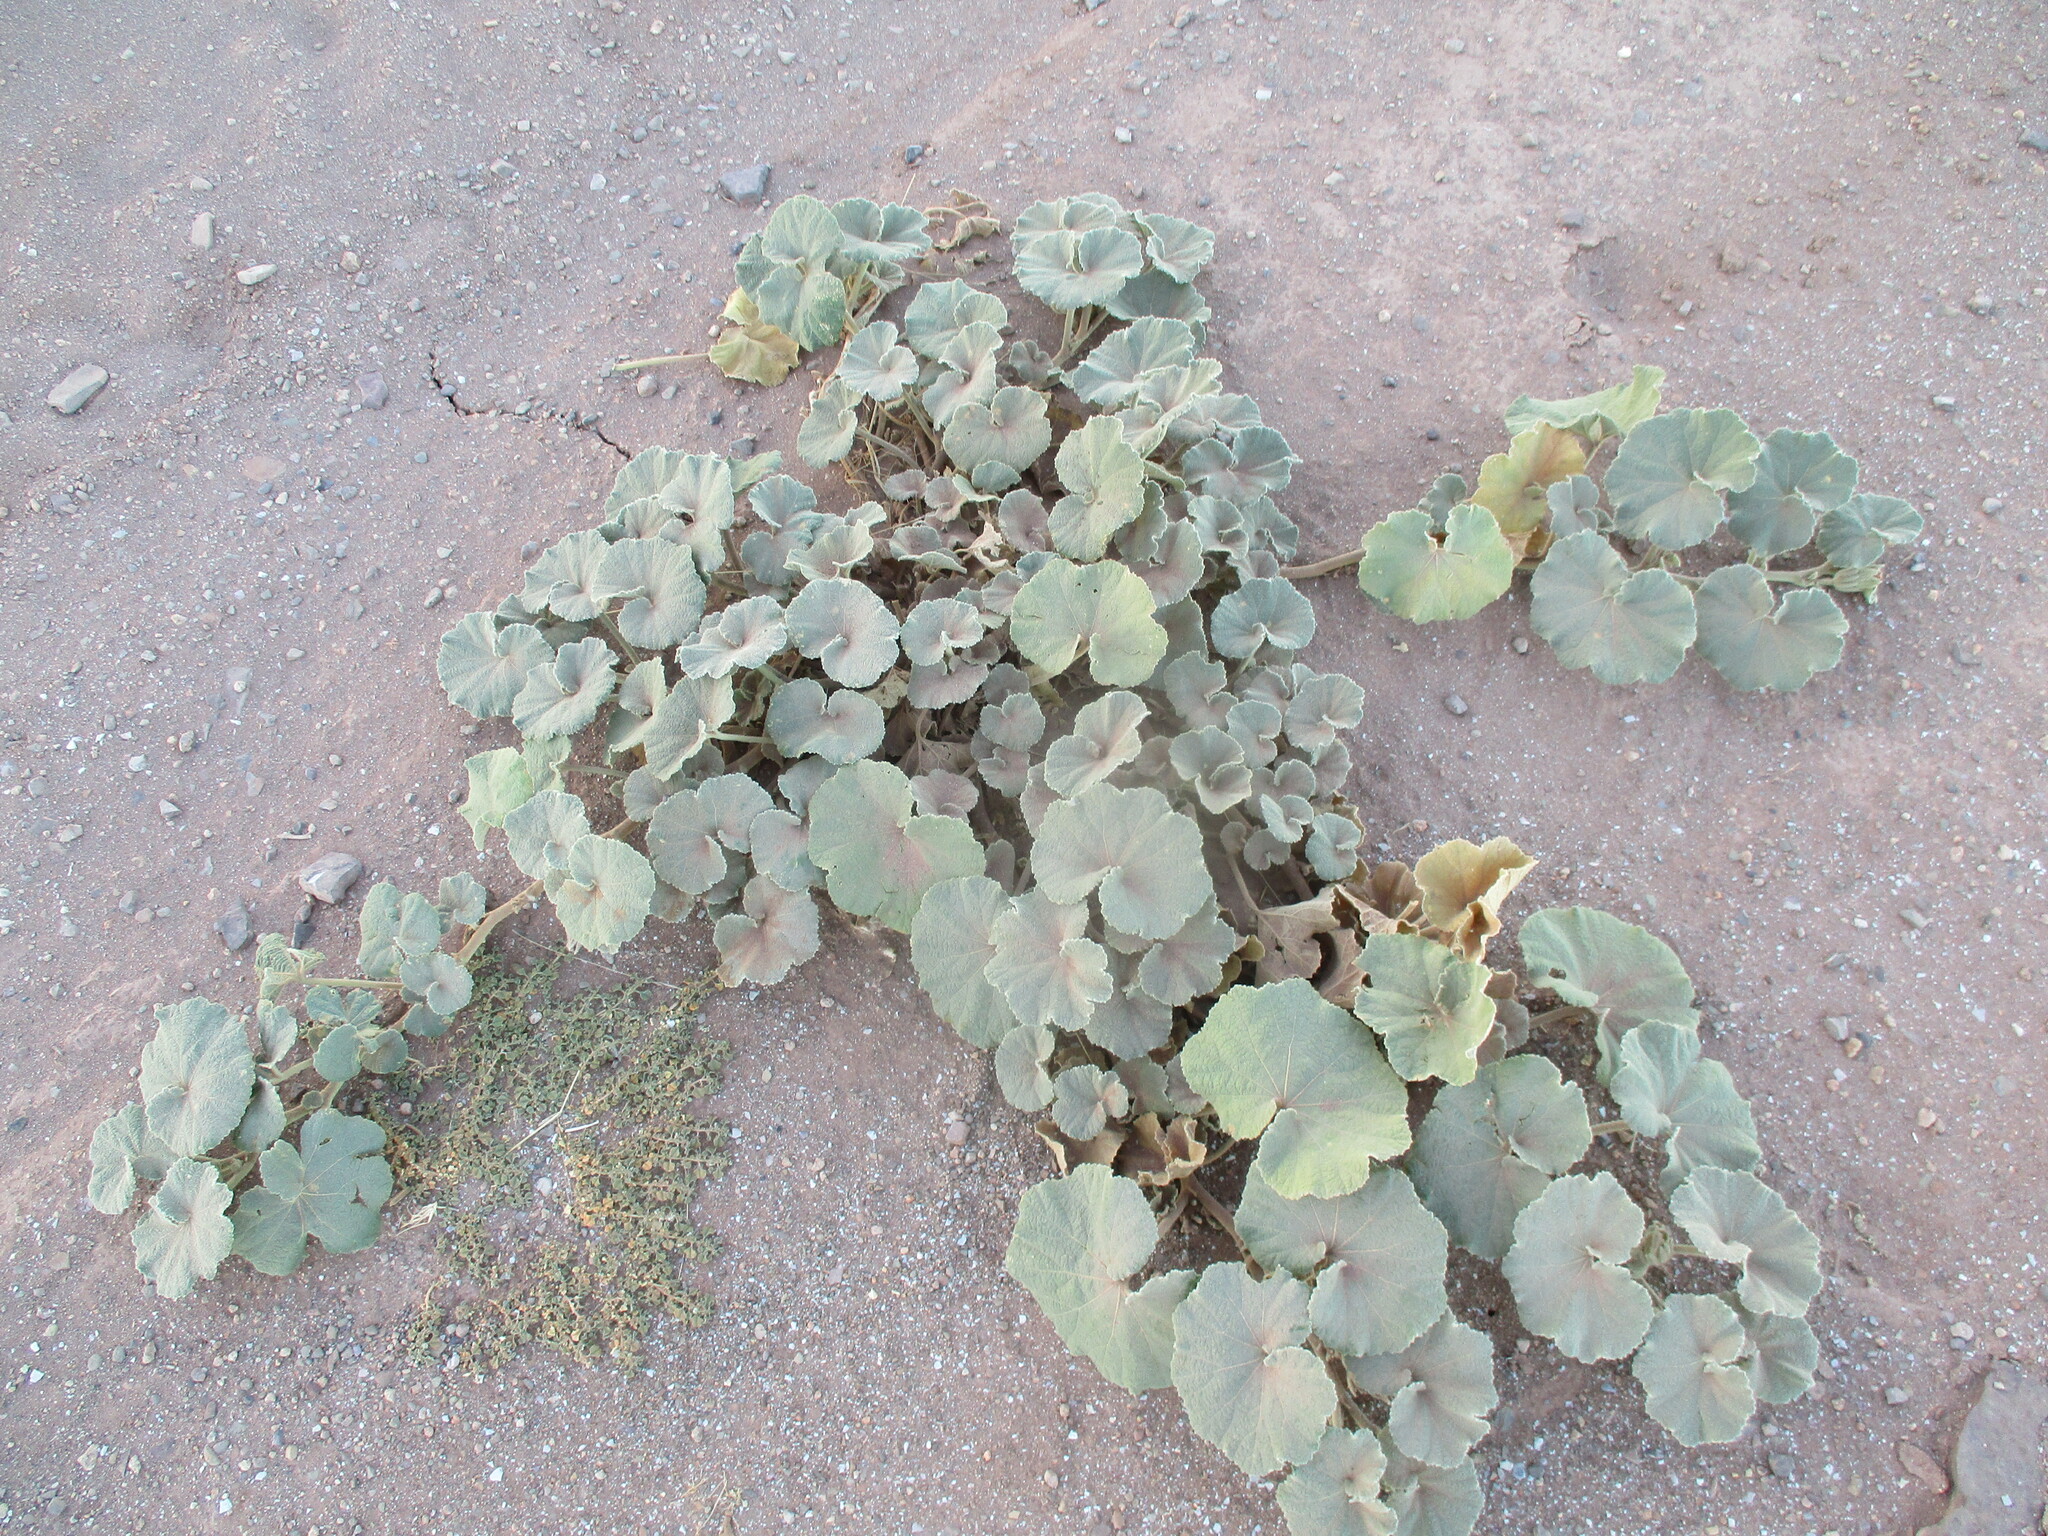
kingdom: Plantae
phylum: Tracheophyta
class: Magnoliopsida
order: Malvales
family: Malvaceae
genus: Radyera
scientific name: Radyera urens
